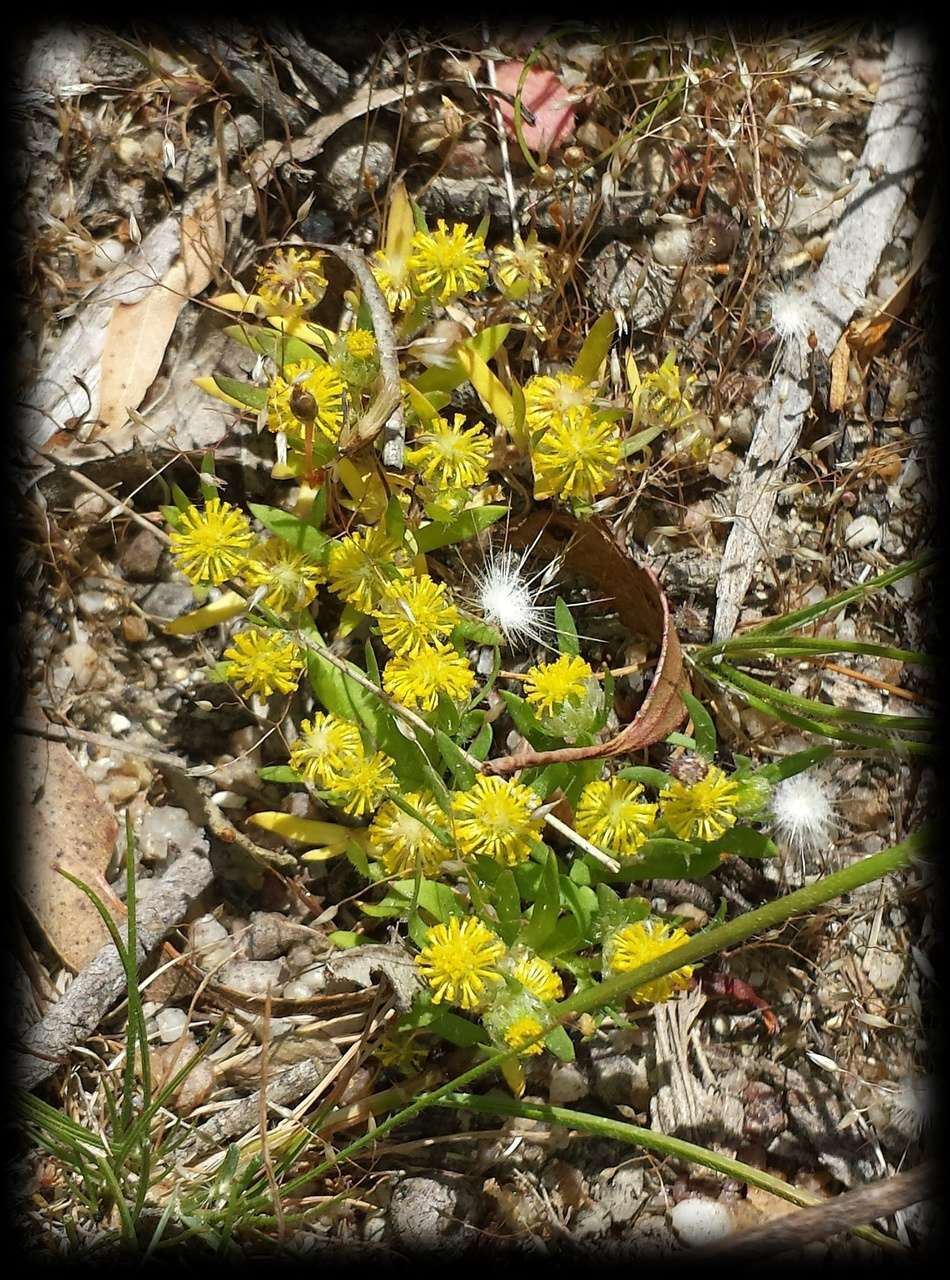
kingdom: Plantae
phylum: Tracheophyta
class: Magnoliopsida
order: Asterales
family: Asteraceae
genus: Triptilodiscus
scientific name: Triptilodiscus pygmaeus
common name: Common sunray
